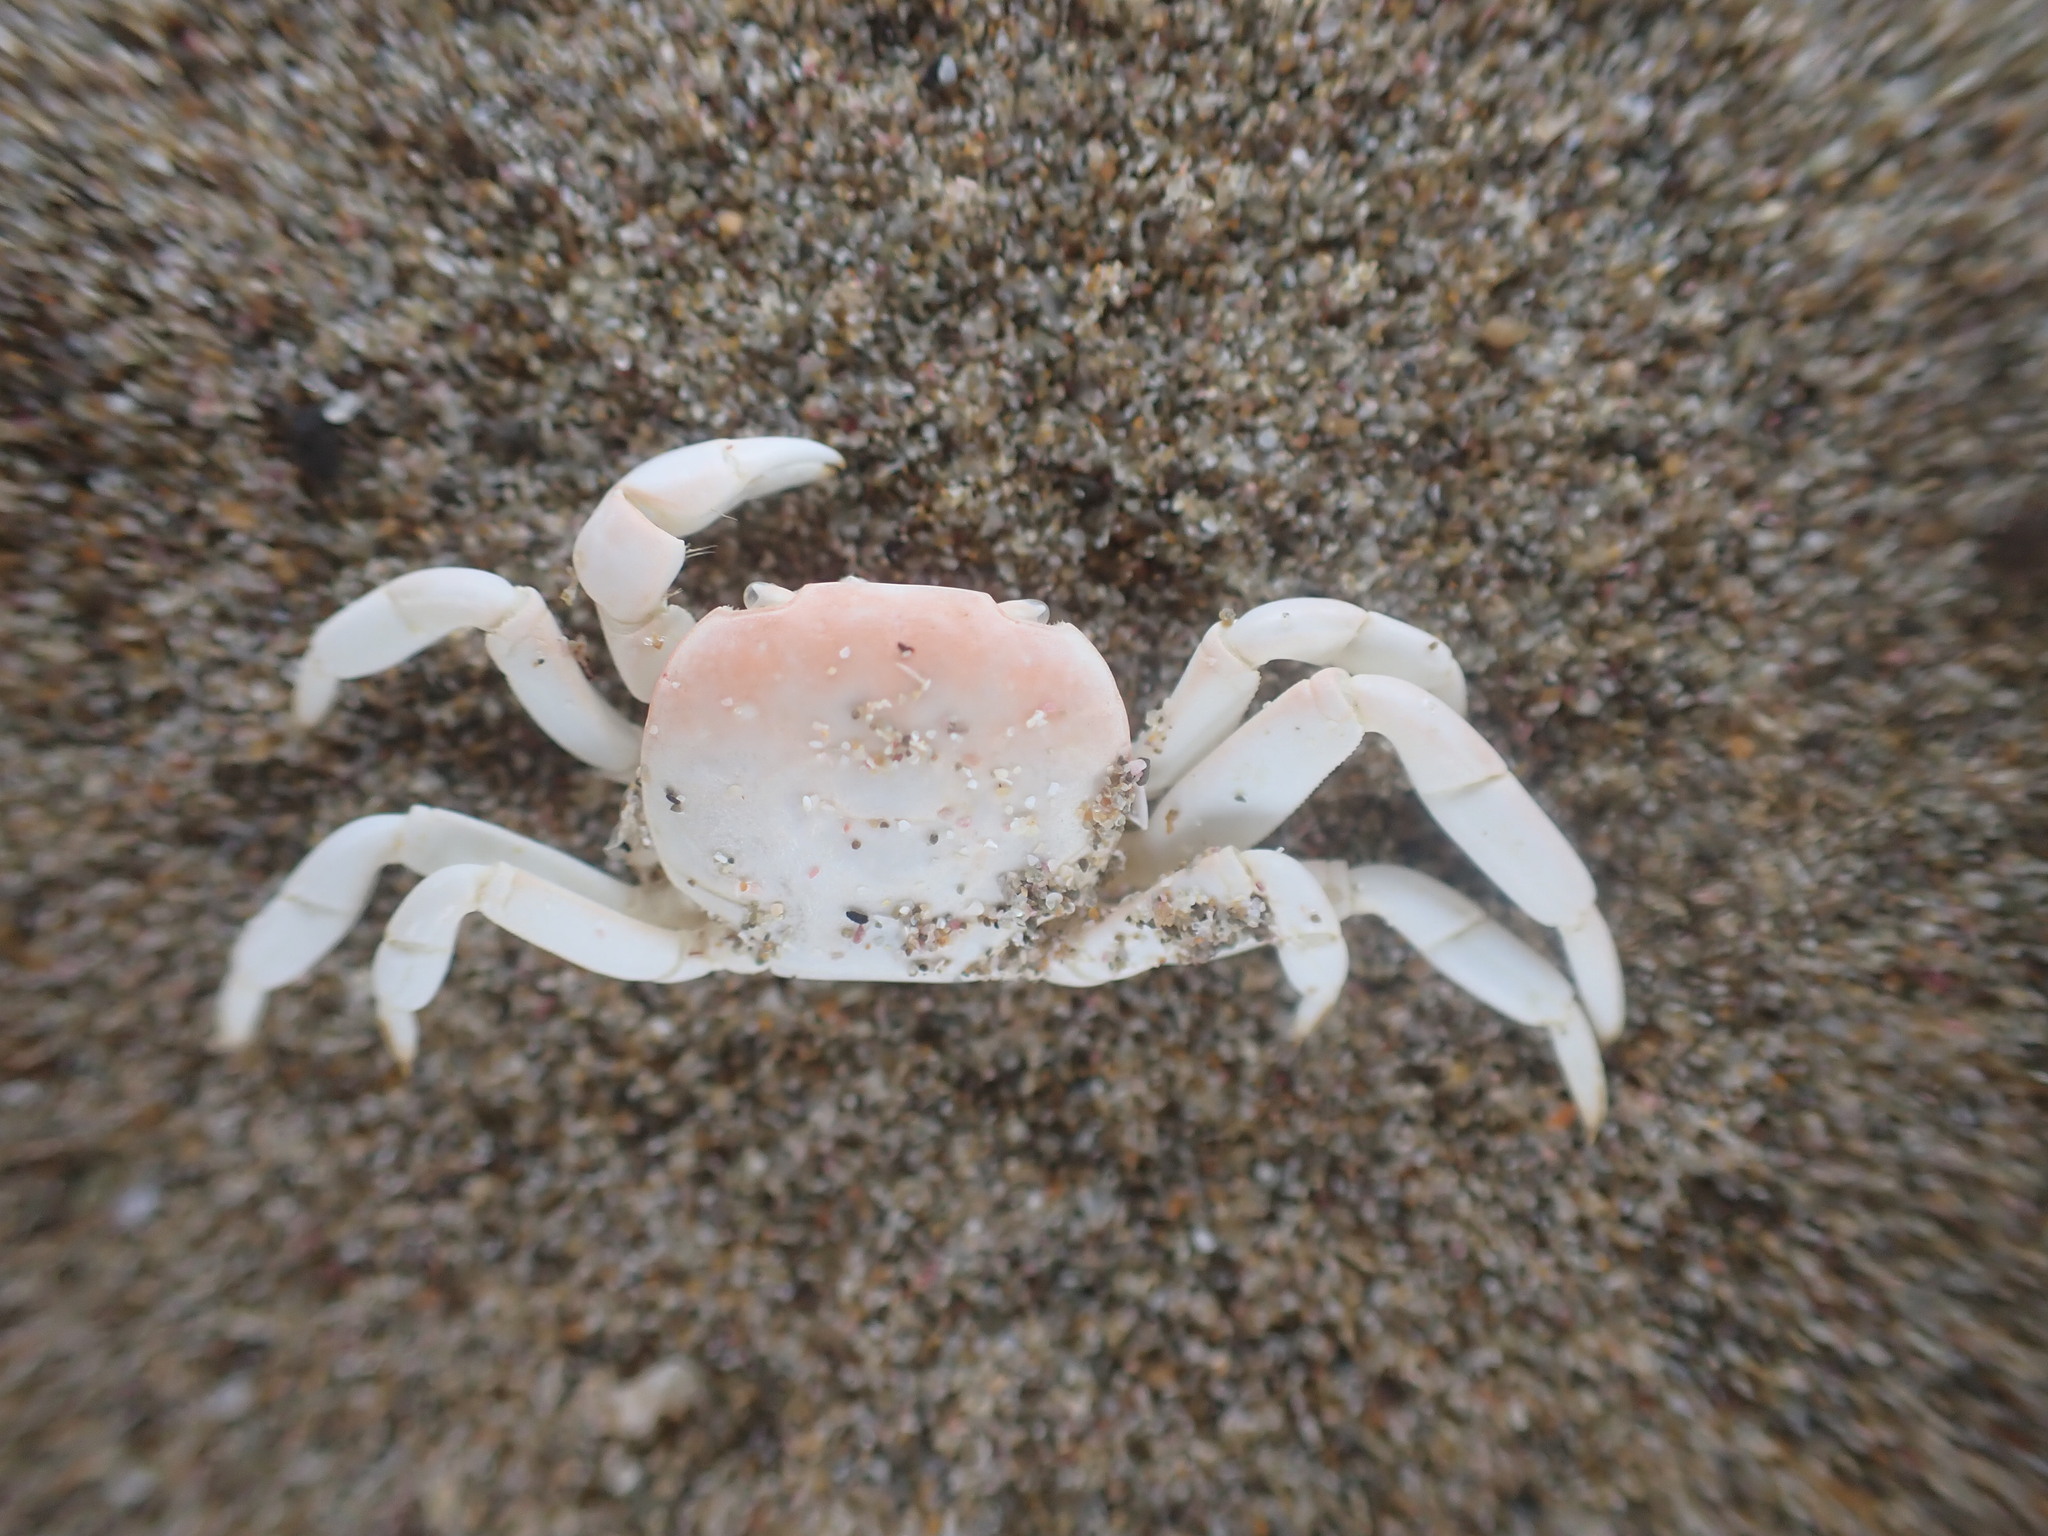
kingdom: Animalia
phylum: Arthropoda
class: Malacostraca
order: Decapoda
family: Varunidae
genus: Cyclograpsus
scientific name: Cyclograpsus insularum
